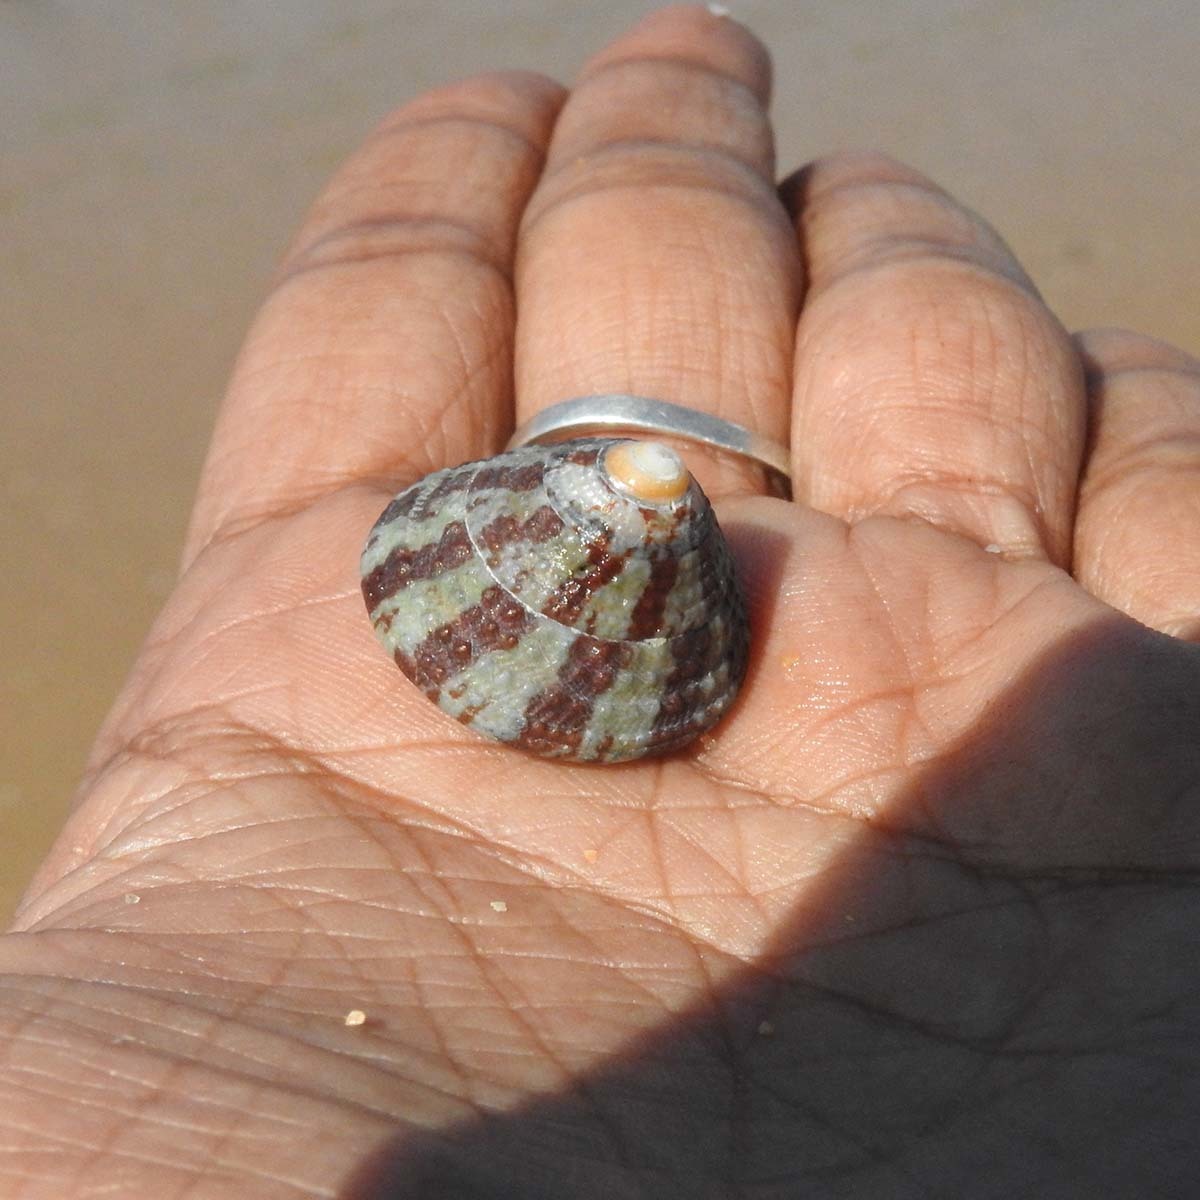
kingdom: Animalia
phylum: Mollusca
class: Gastropoda
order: Trochida
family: Trochidae
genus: Trochus
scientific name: Trochus radiatus
